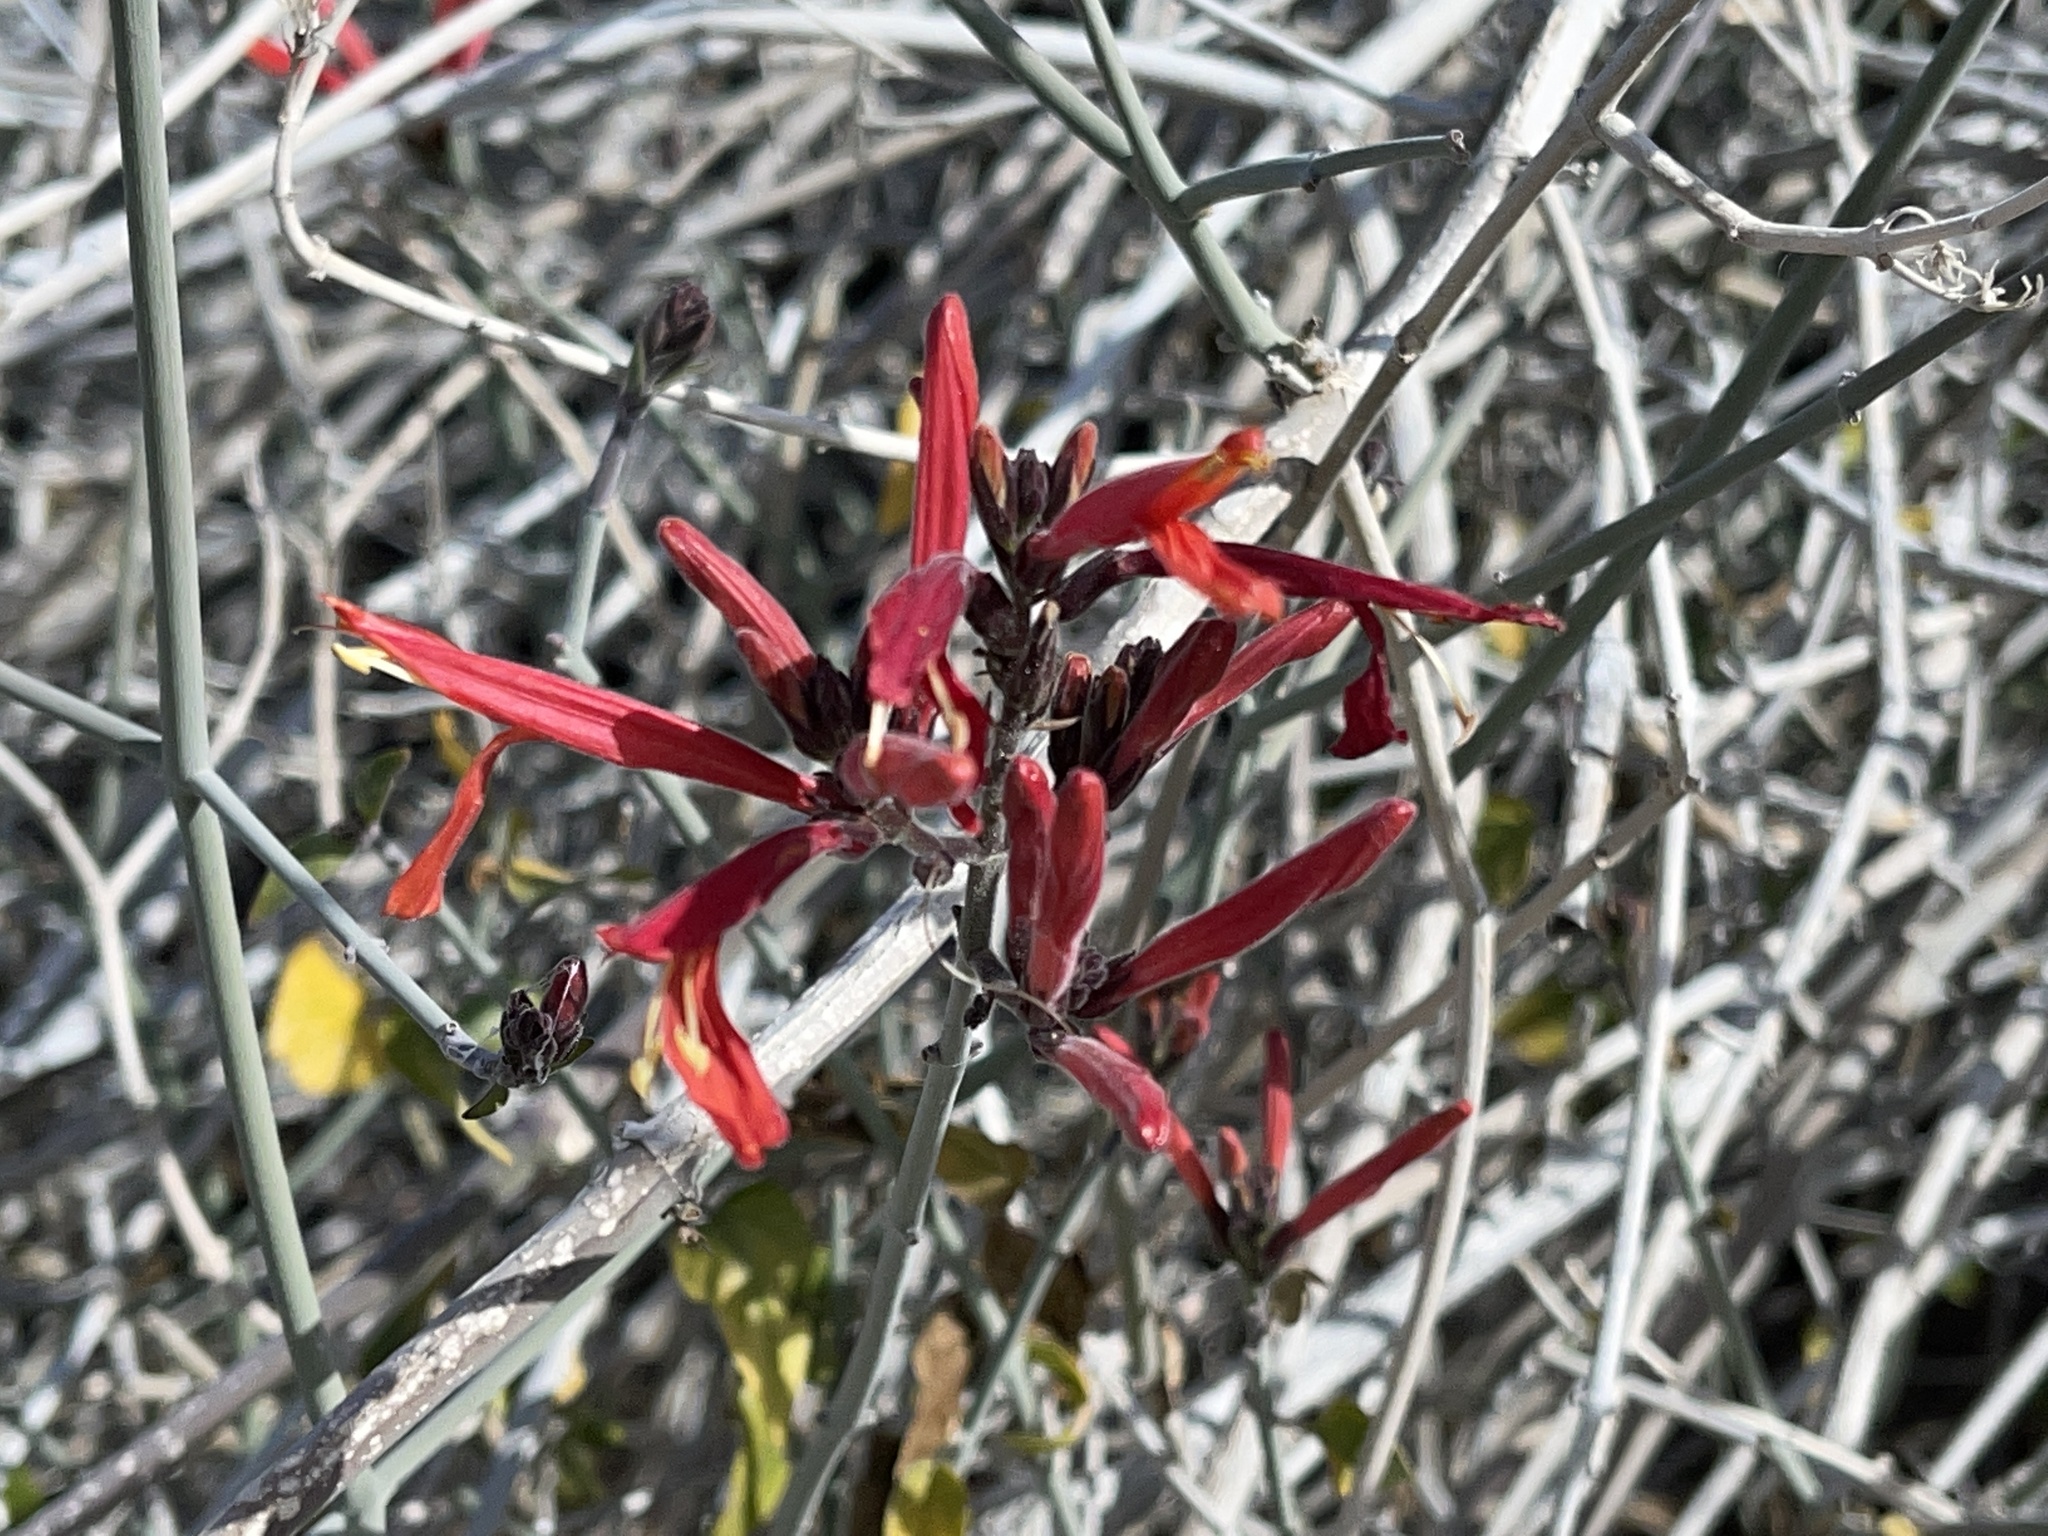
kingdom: Plantae
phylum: Tracheophyta
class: Magnoliopsida
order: Lamiales
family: Acanthaceae
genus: Justicia
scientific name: Justicia californica
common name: Chuparosa-honeysuckle
